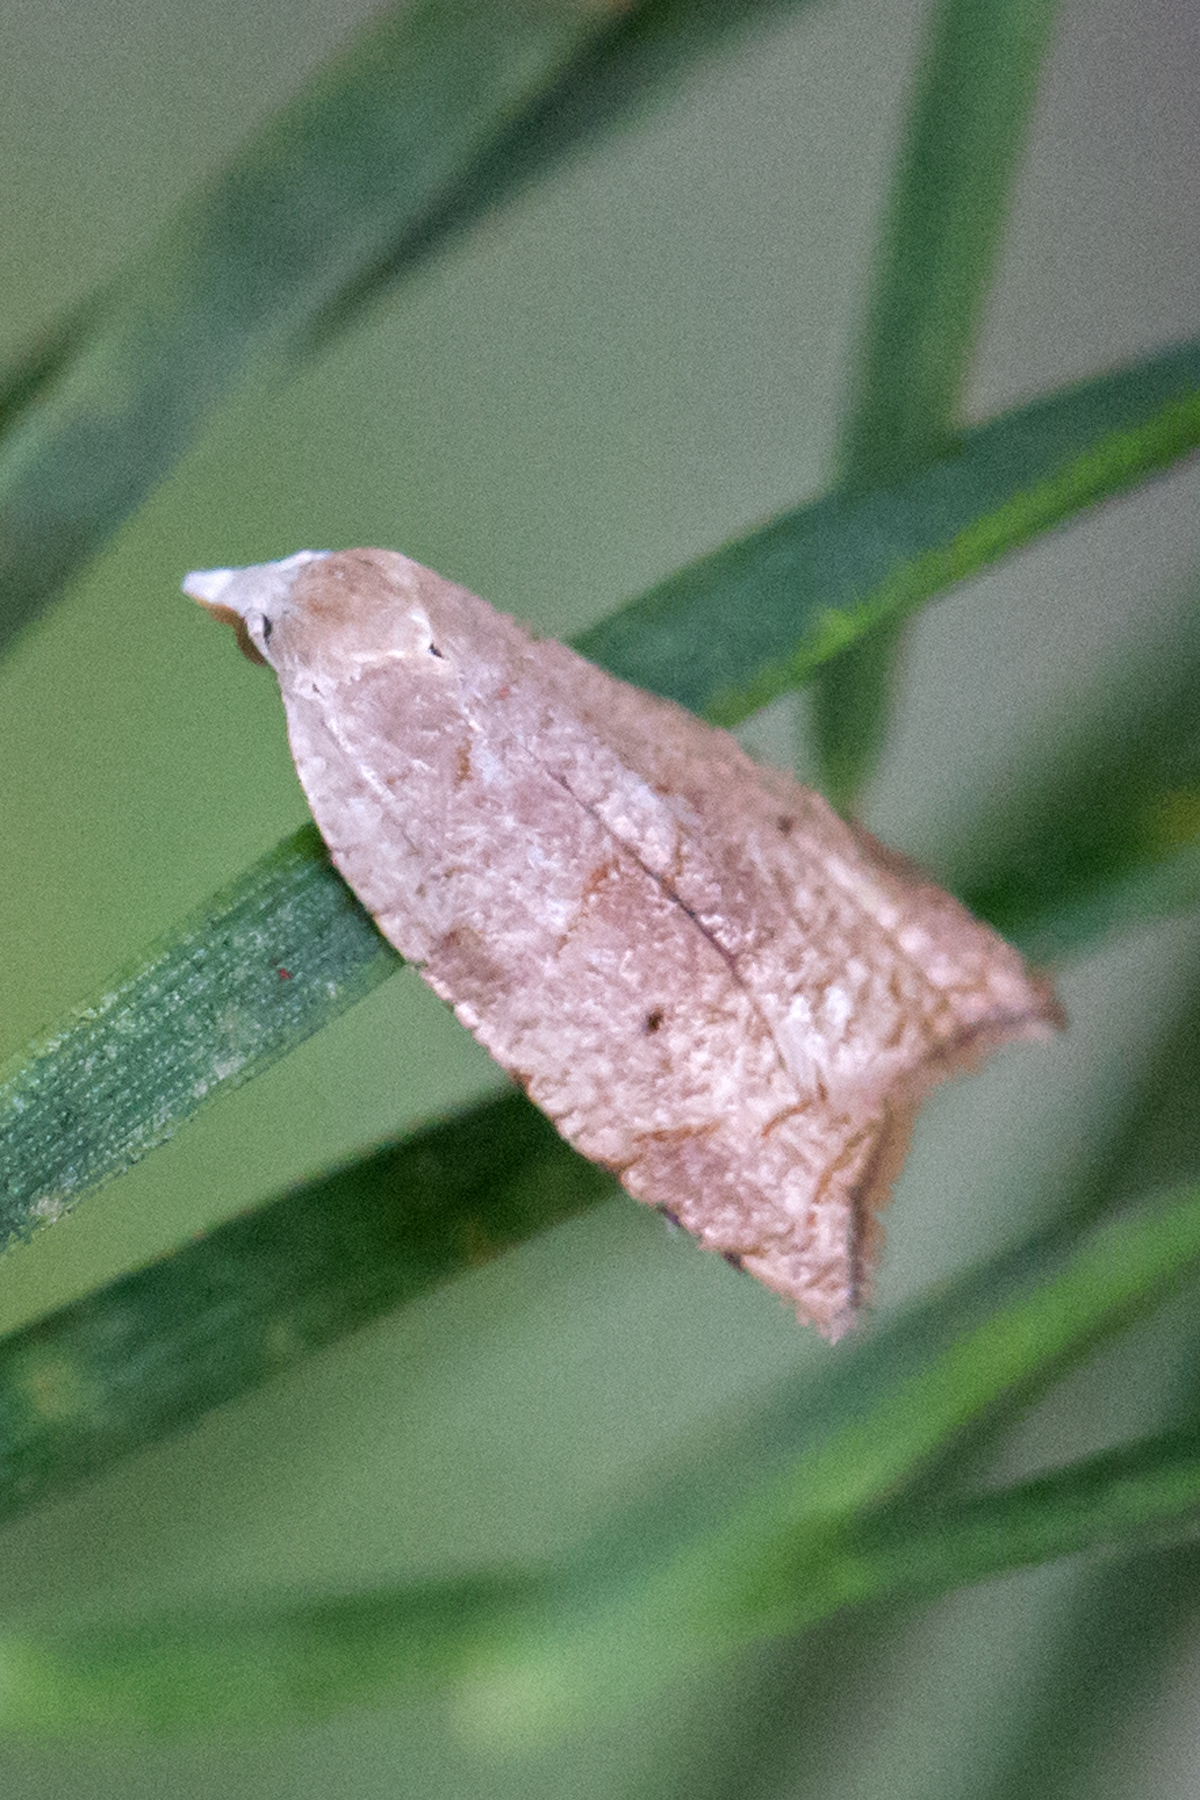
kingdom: Animalia
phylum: Arthropoda
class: Insecta
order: Lepidoptera
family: Tortricidae
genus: Coelostathma
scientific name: Coelostathma discopunctana
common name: Batman moth
